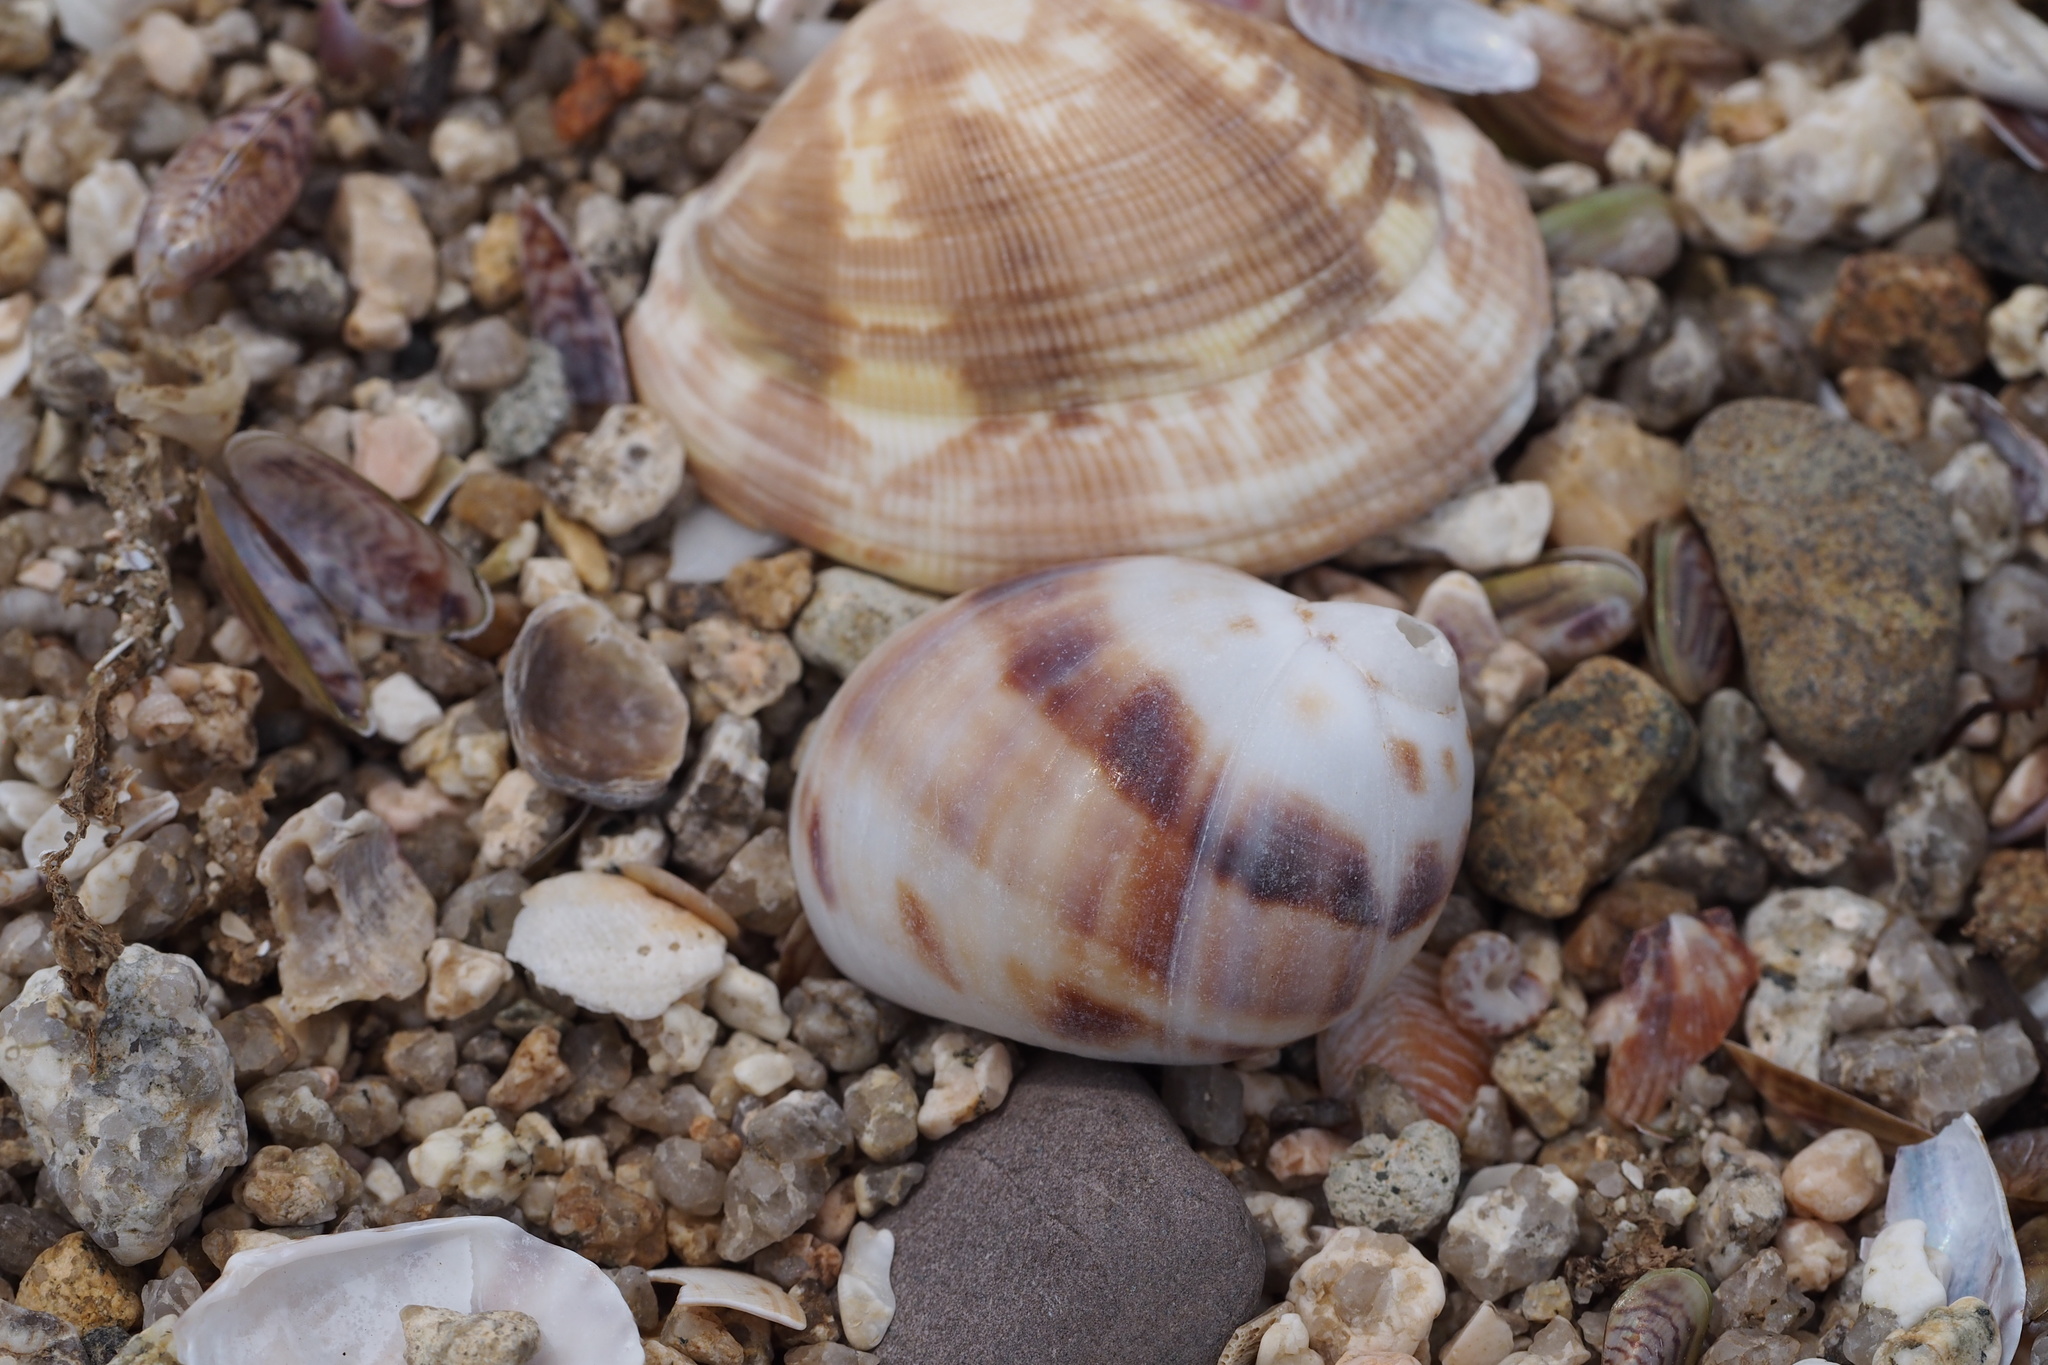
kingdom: Animalia
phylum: Mollusca
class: Gastropoda
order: Littorinimorpha
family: Naticidae
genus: Mammilla
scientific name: Mammilla simiae
